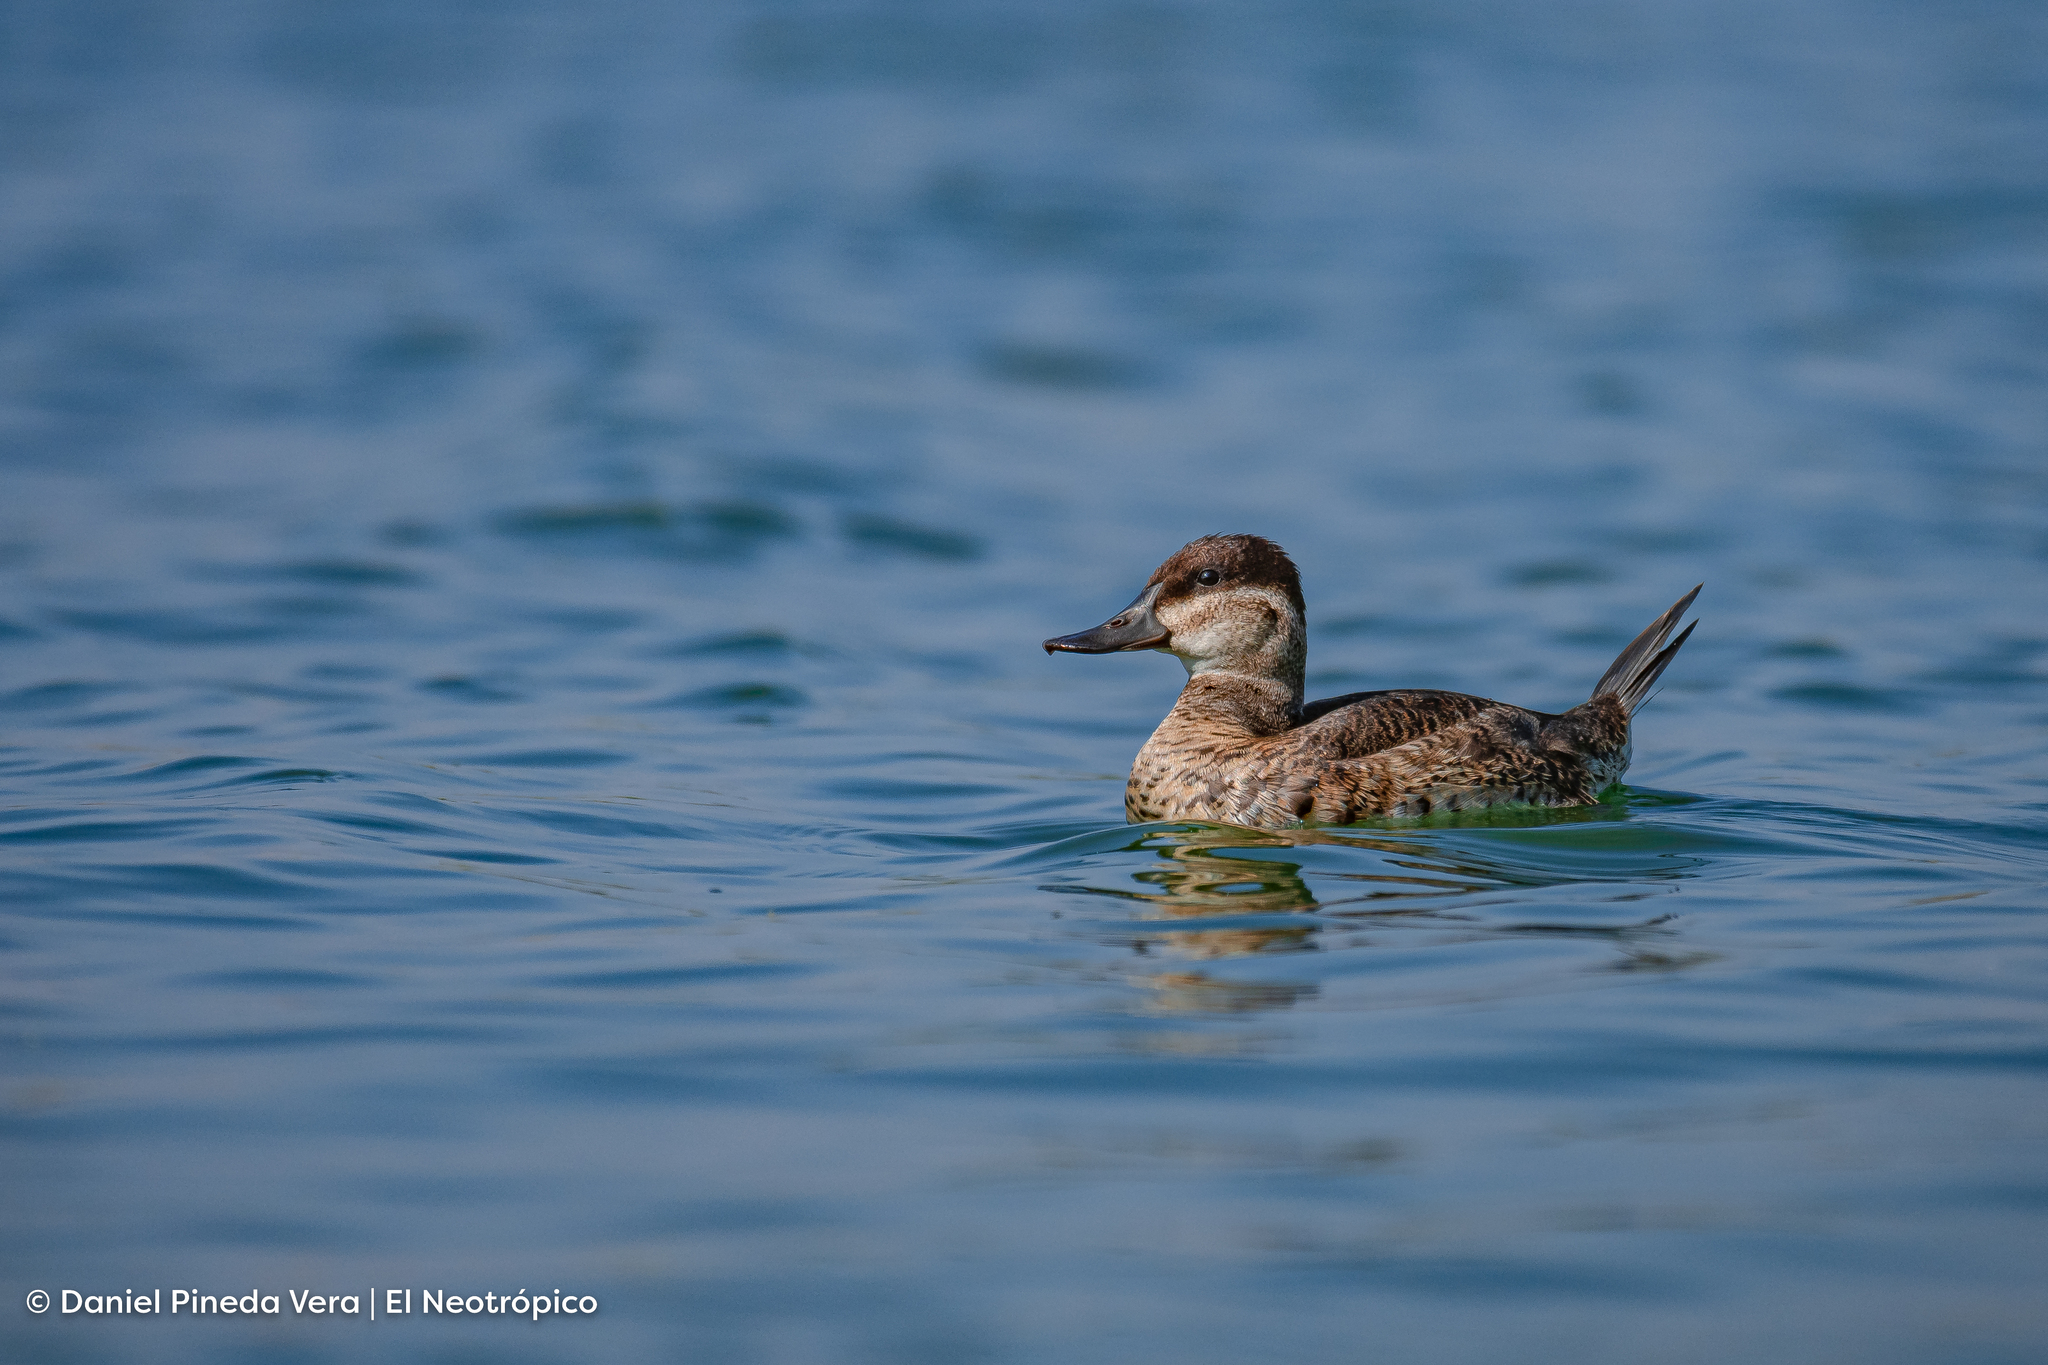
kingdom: Animalia
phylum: Chordata
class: Aves
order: Anseriformes
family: Anatidae
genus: Oxyura
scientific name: Oxyura jamaicensis
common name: Ruddy duck
